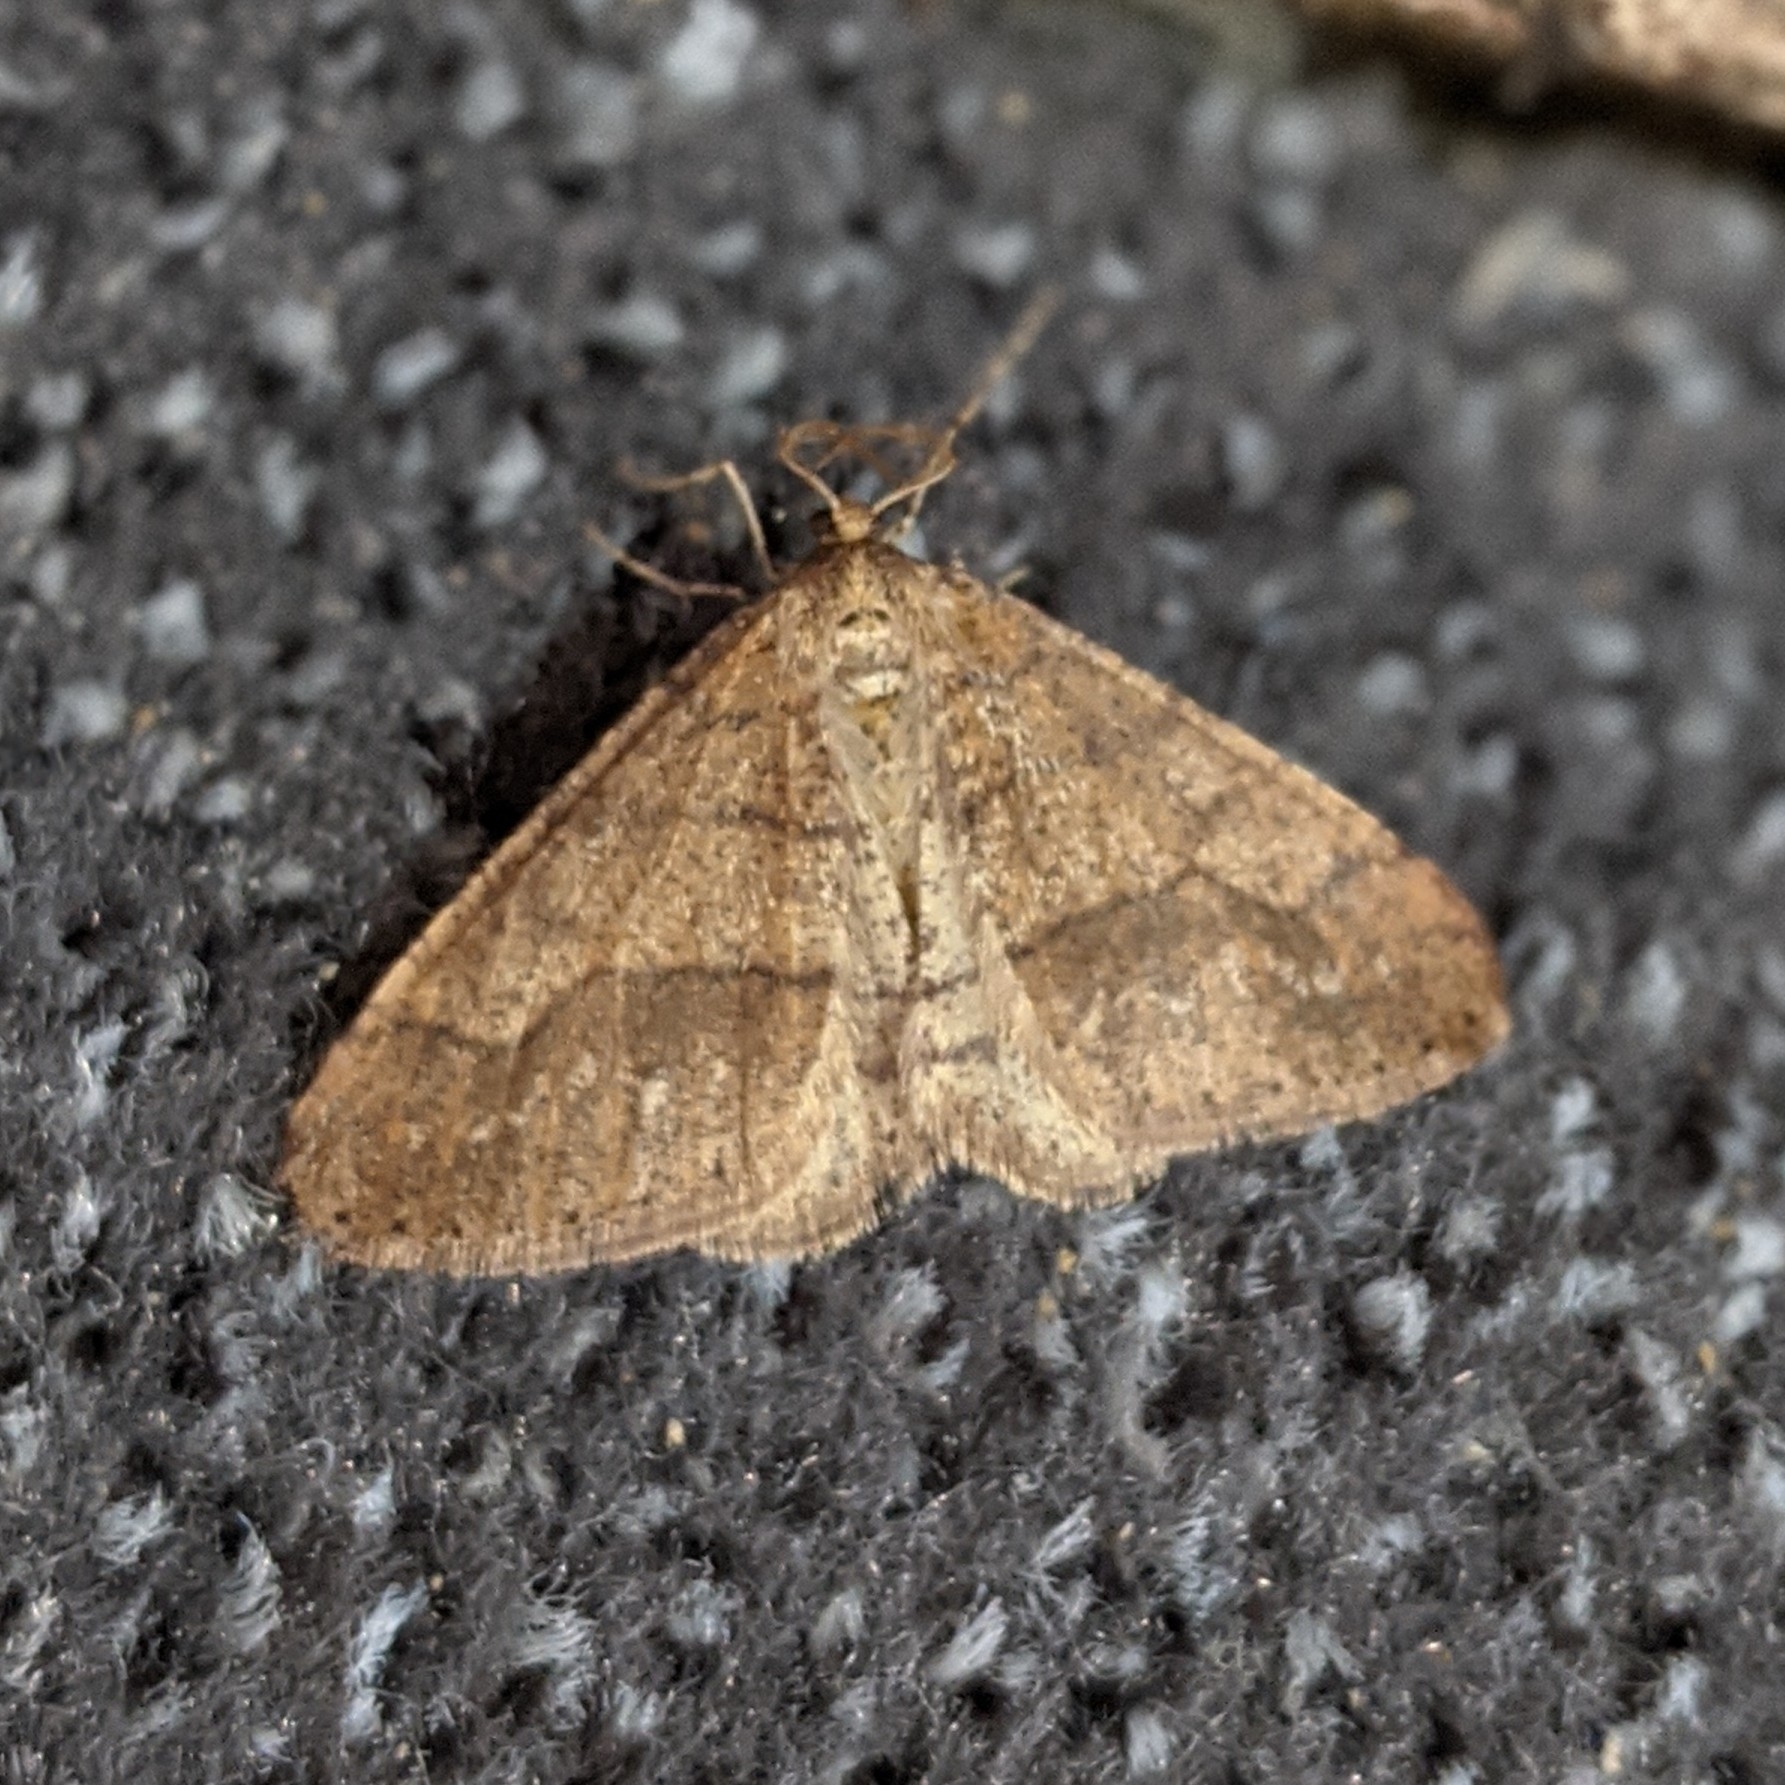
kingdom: Animalia
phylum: Arthropoda
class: Insecta
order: Lepidoptera
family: Geometridae
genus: Agriopis
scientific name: Agriopis marginaria
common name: Dotted border
